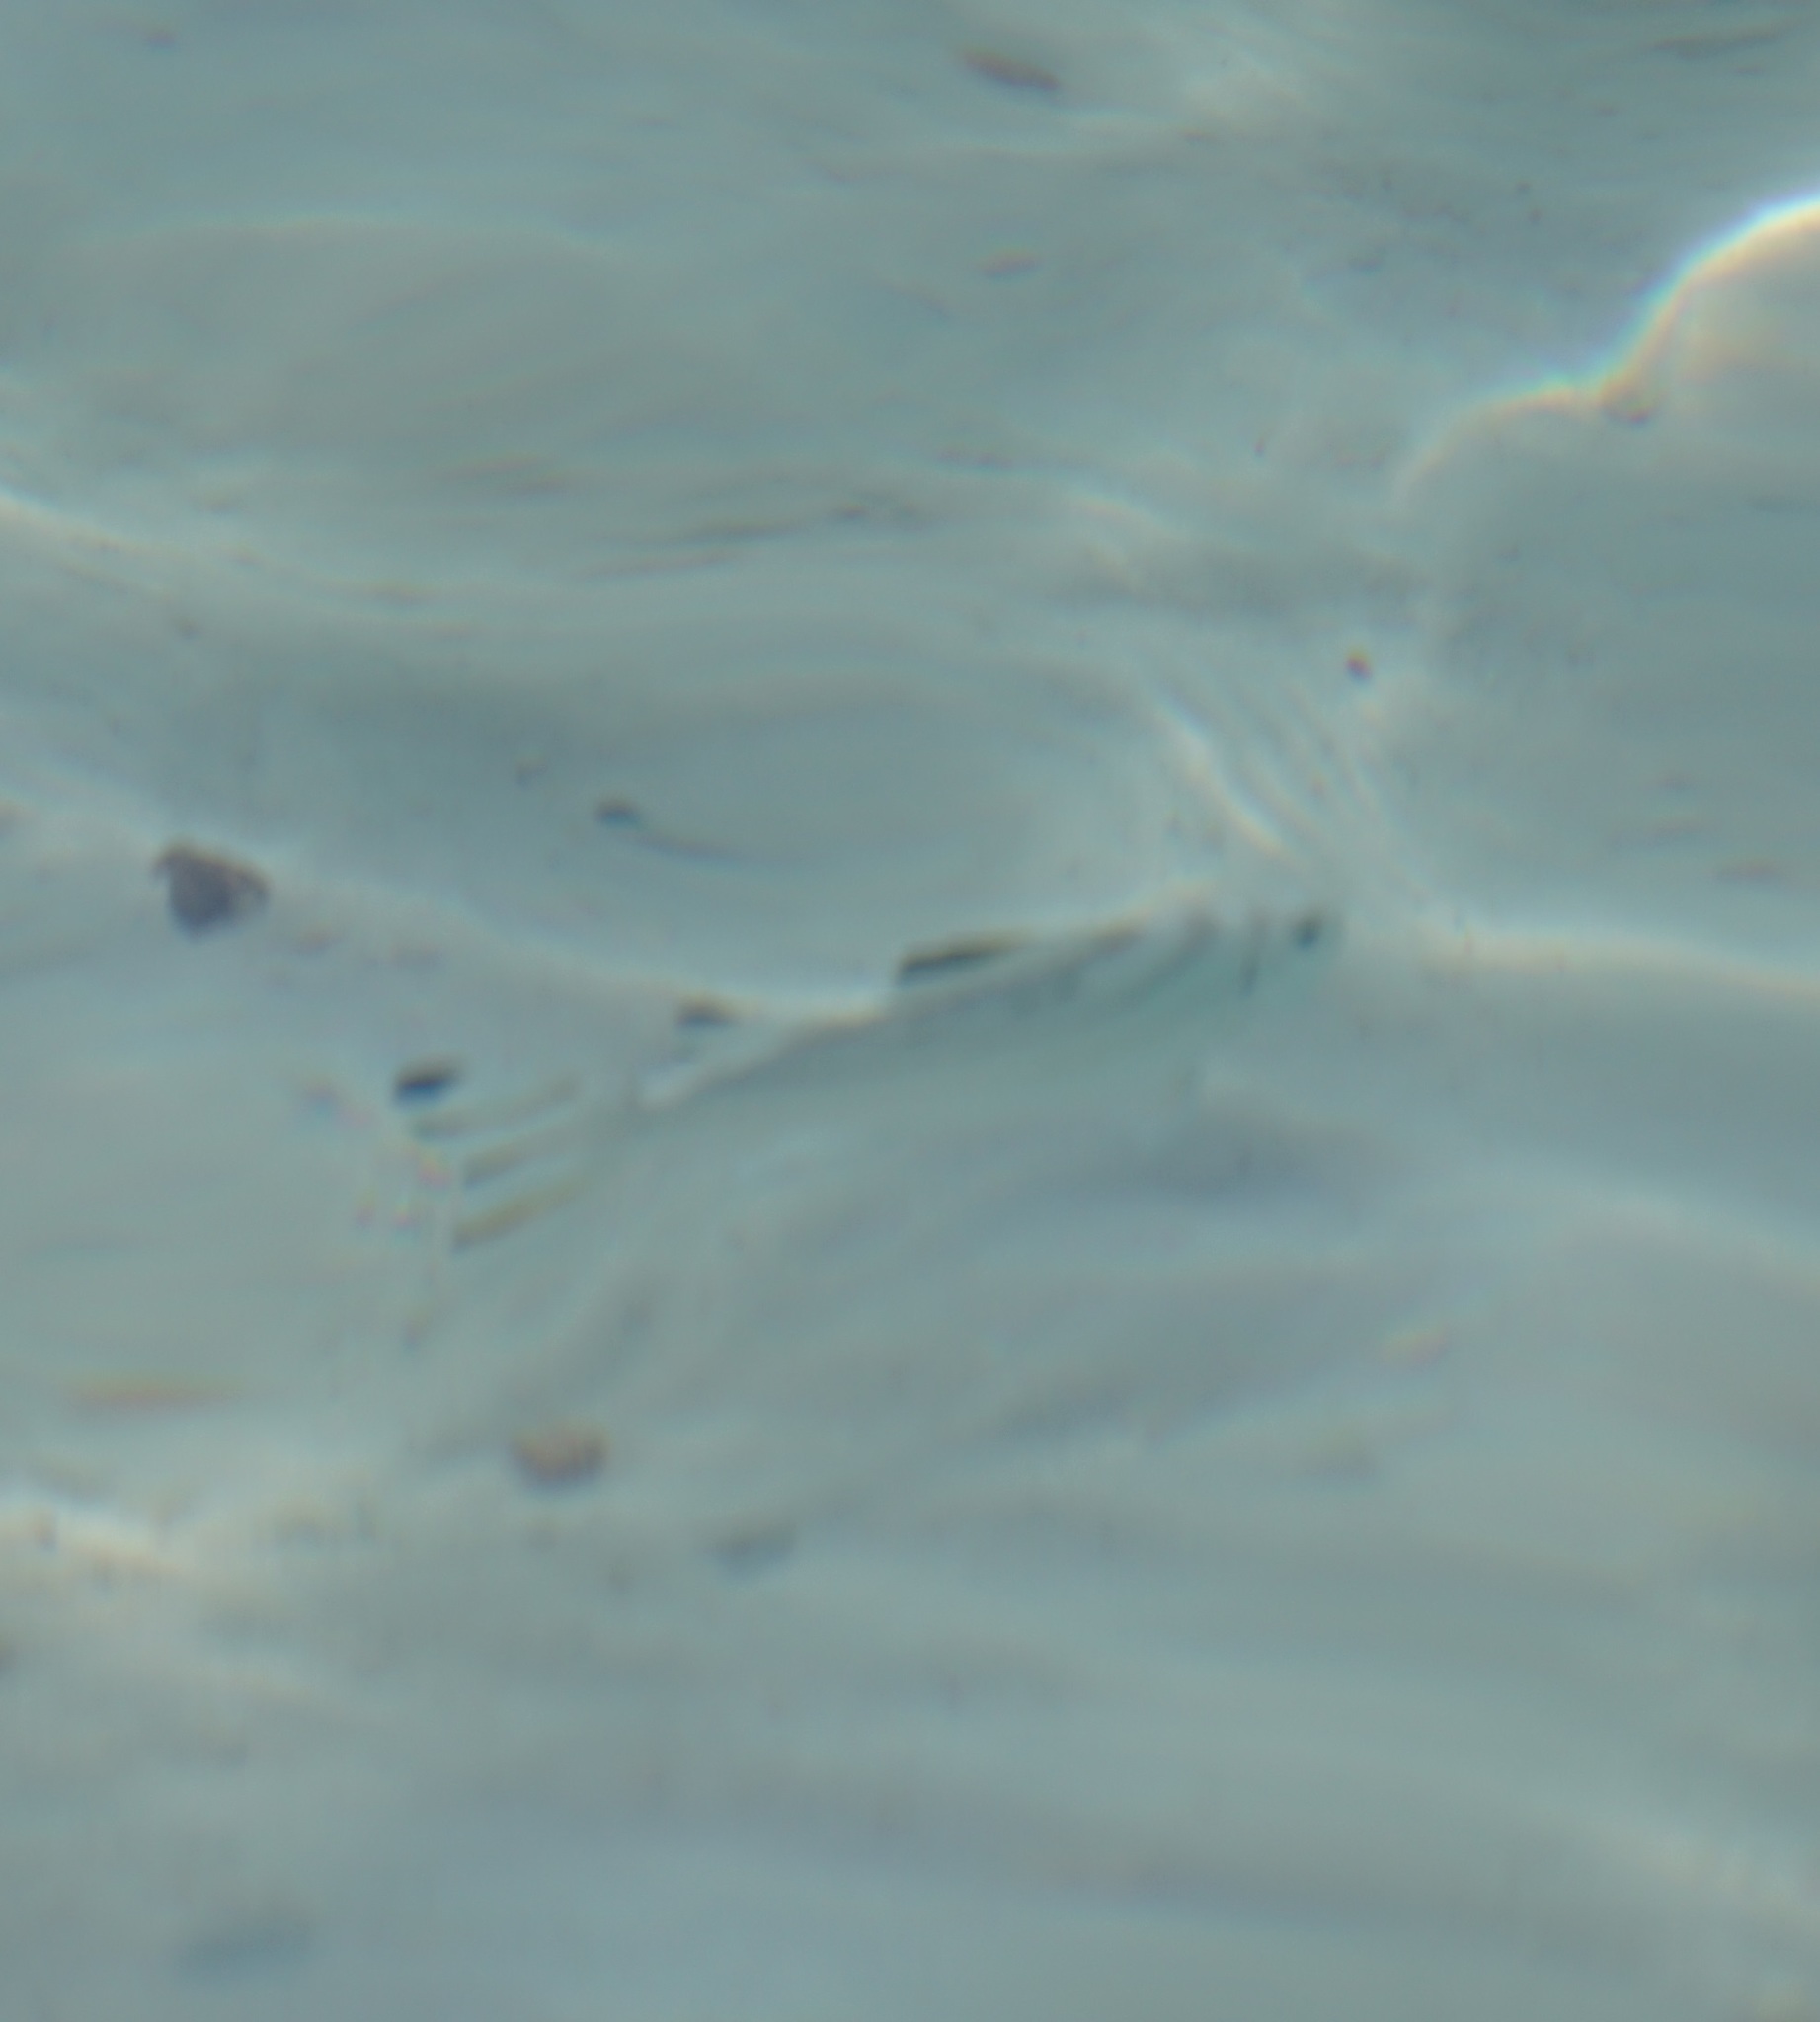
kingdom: Animalia
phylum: Chordata
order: Perciformes
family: Terapontidae
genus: Terapon
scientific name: Terapon jarbua
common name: Jarbua terapon
